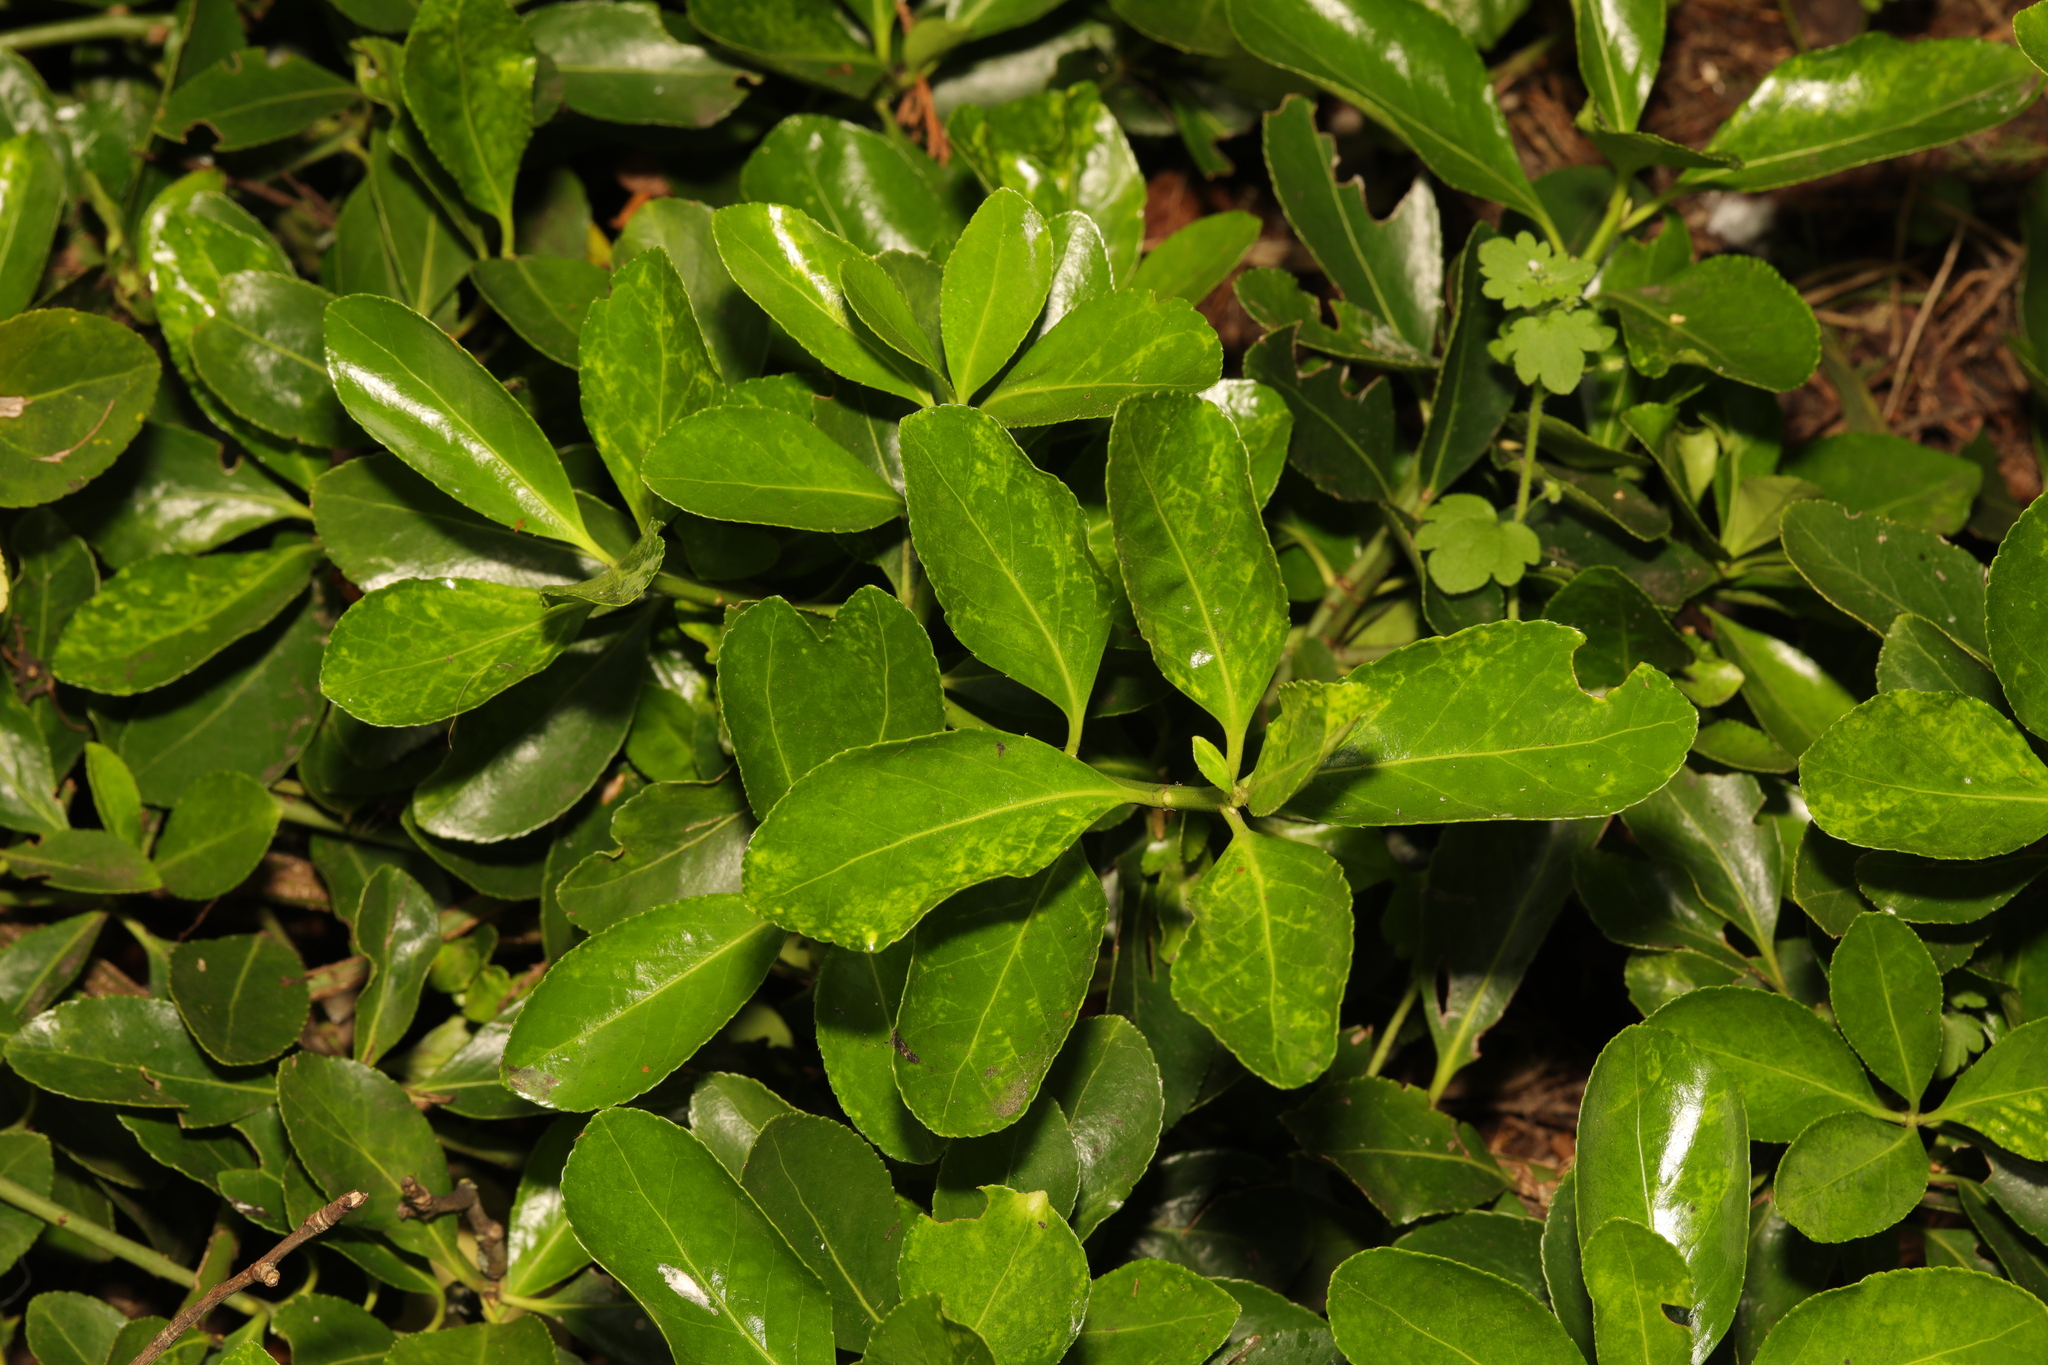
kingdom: Plantae
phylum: Tracheophyta
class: Magnoliopsida
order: Celastrales
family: Celastraceae
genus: Euonymus
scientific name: Euonymus japonicus
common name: Japanese spindletree
